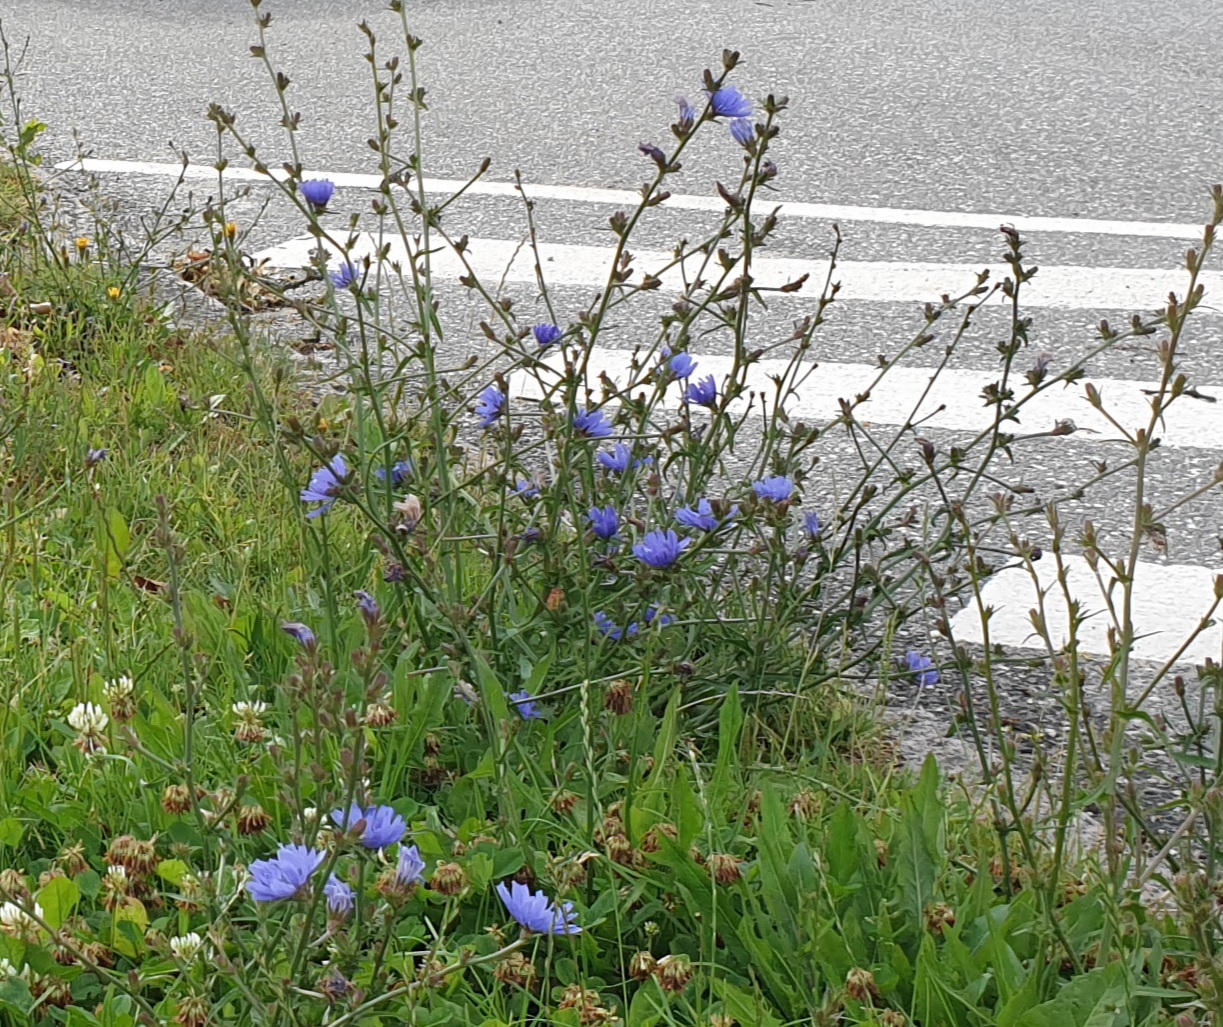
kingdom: Plantae
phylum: Tracheophyta
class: Magnoliopsida
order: Asterales
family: Asteraceae
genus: Cichorium
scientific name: Cichorium intybus
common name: Chicory
